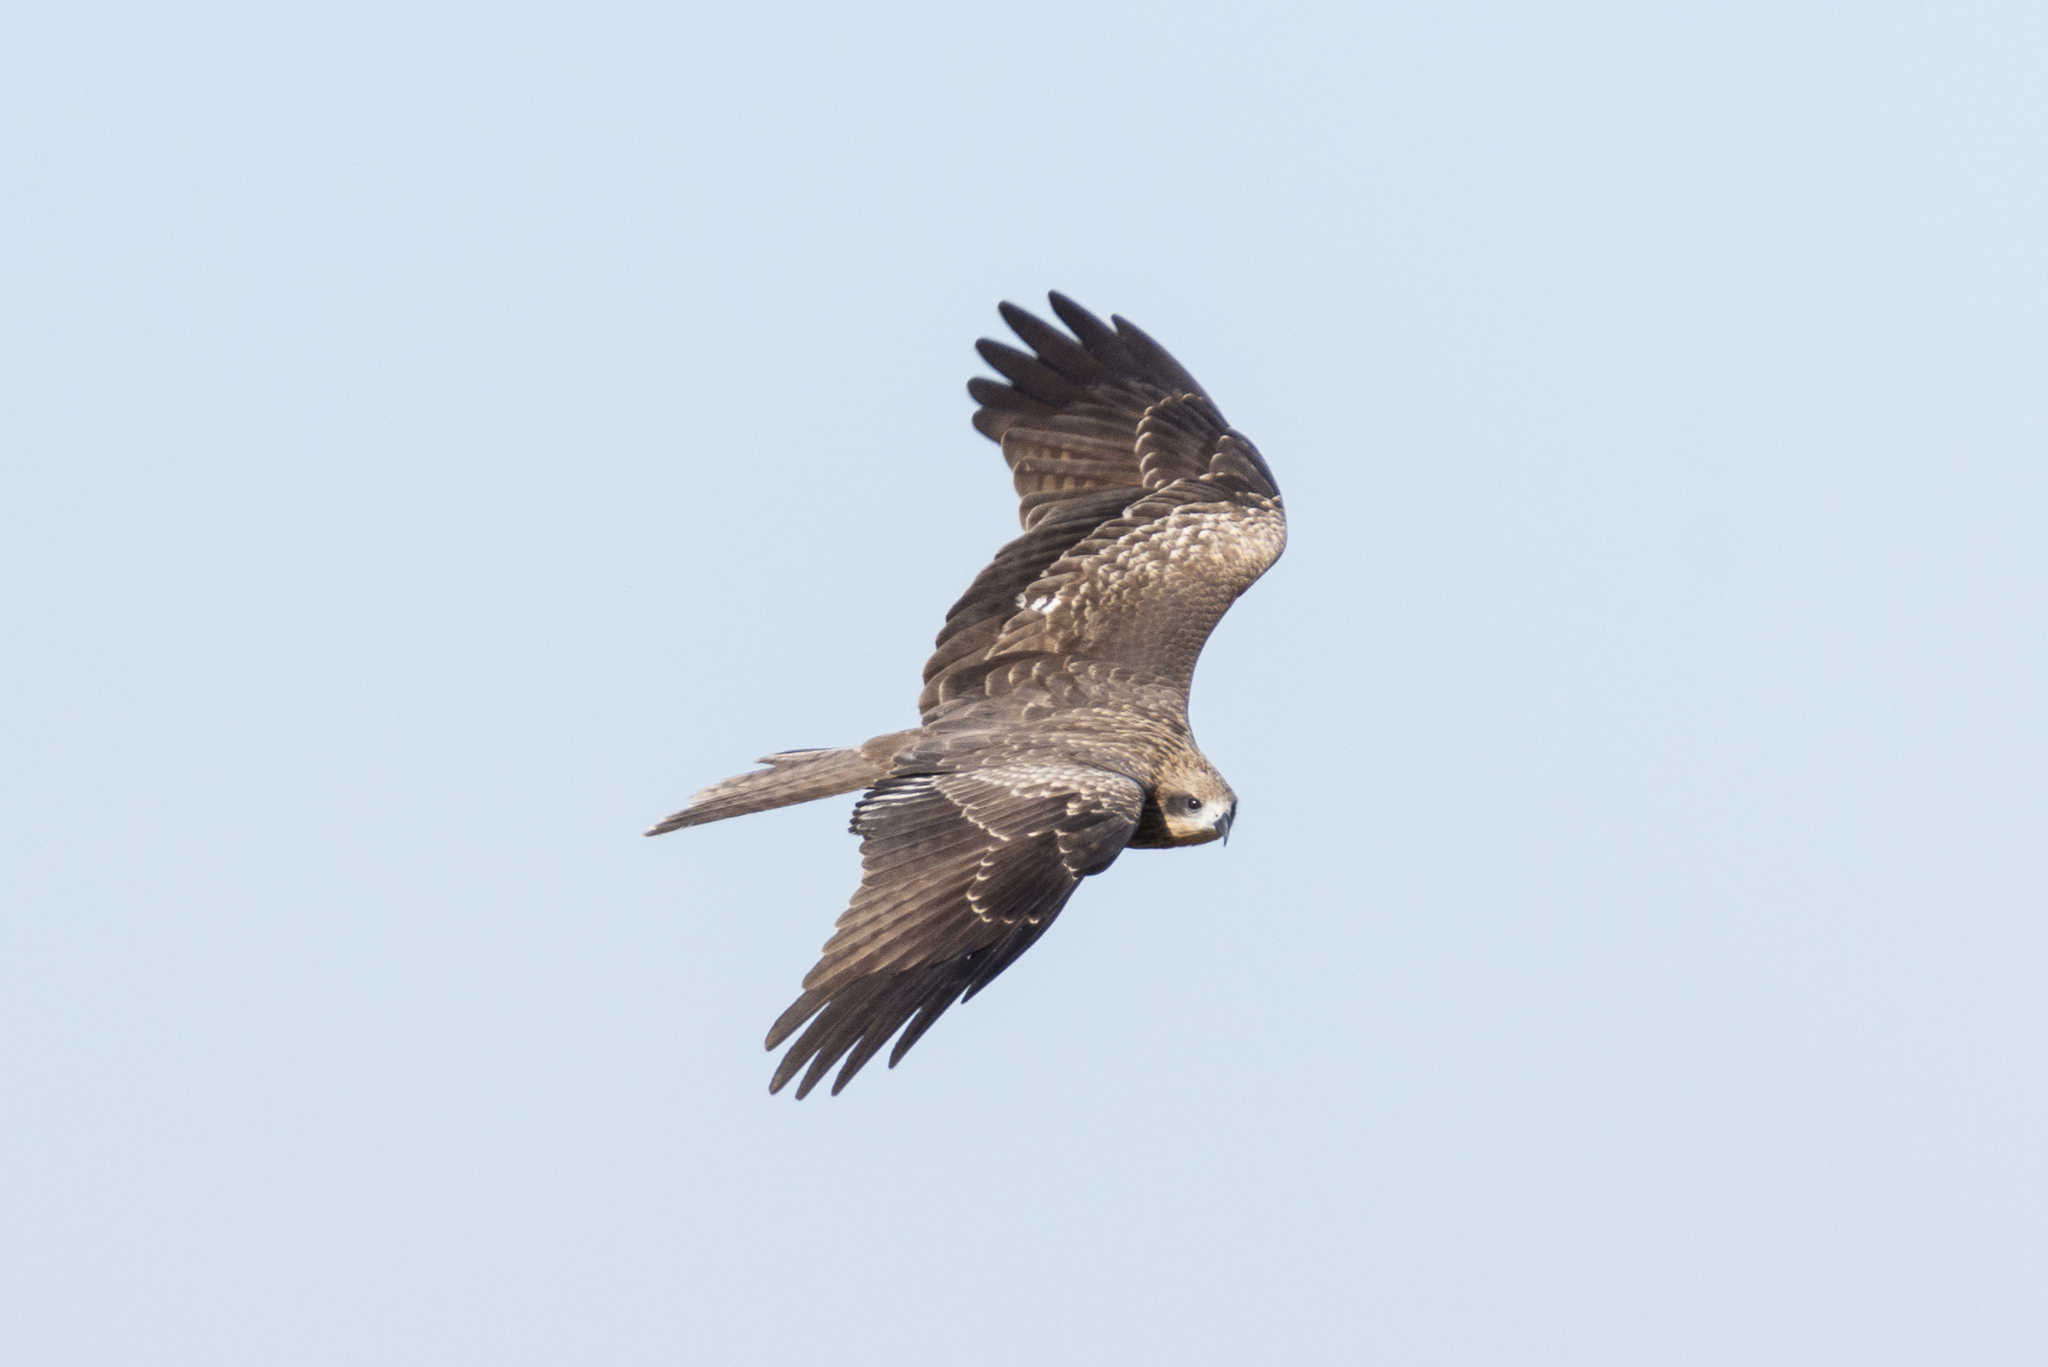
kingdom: Animalia
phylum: Chordata
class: Aves
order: Accipitriformes
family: Accipitridae
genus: Milvus
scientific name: Milvus migrans
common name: Black kite
